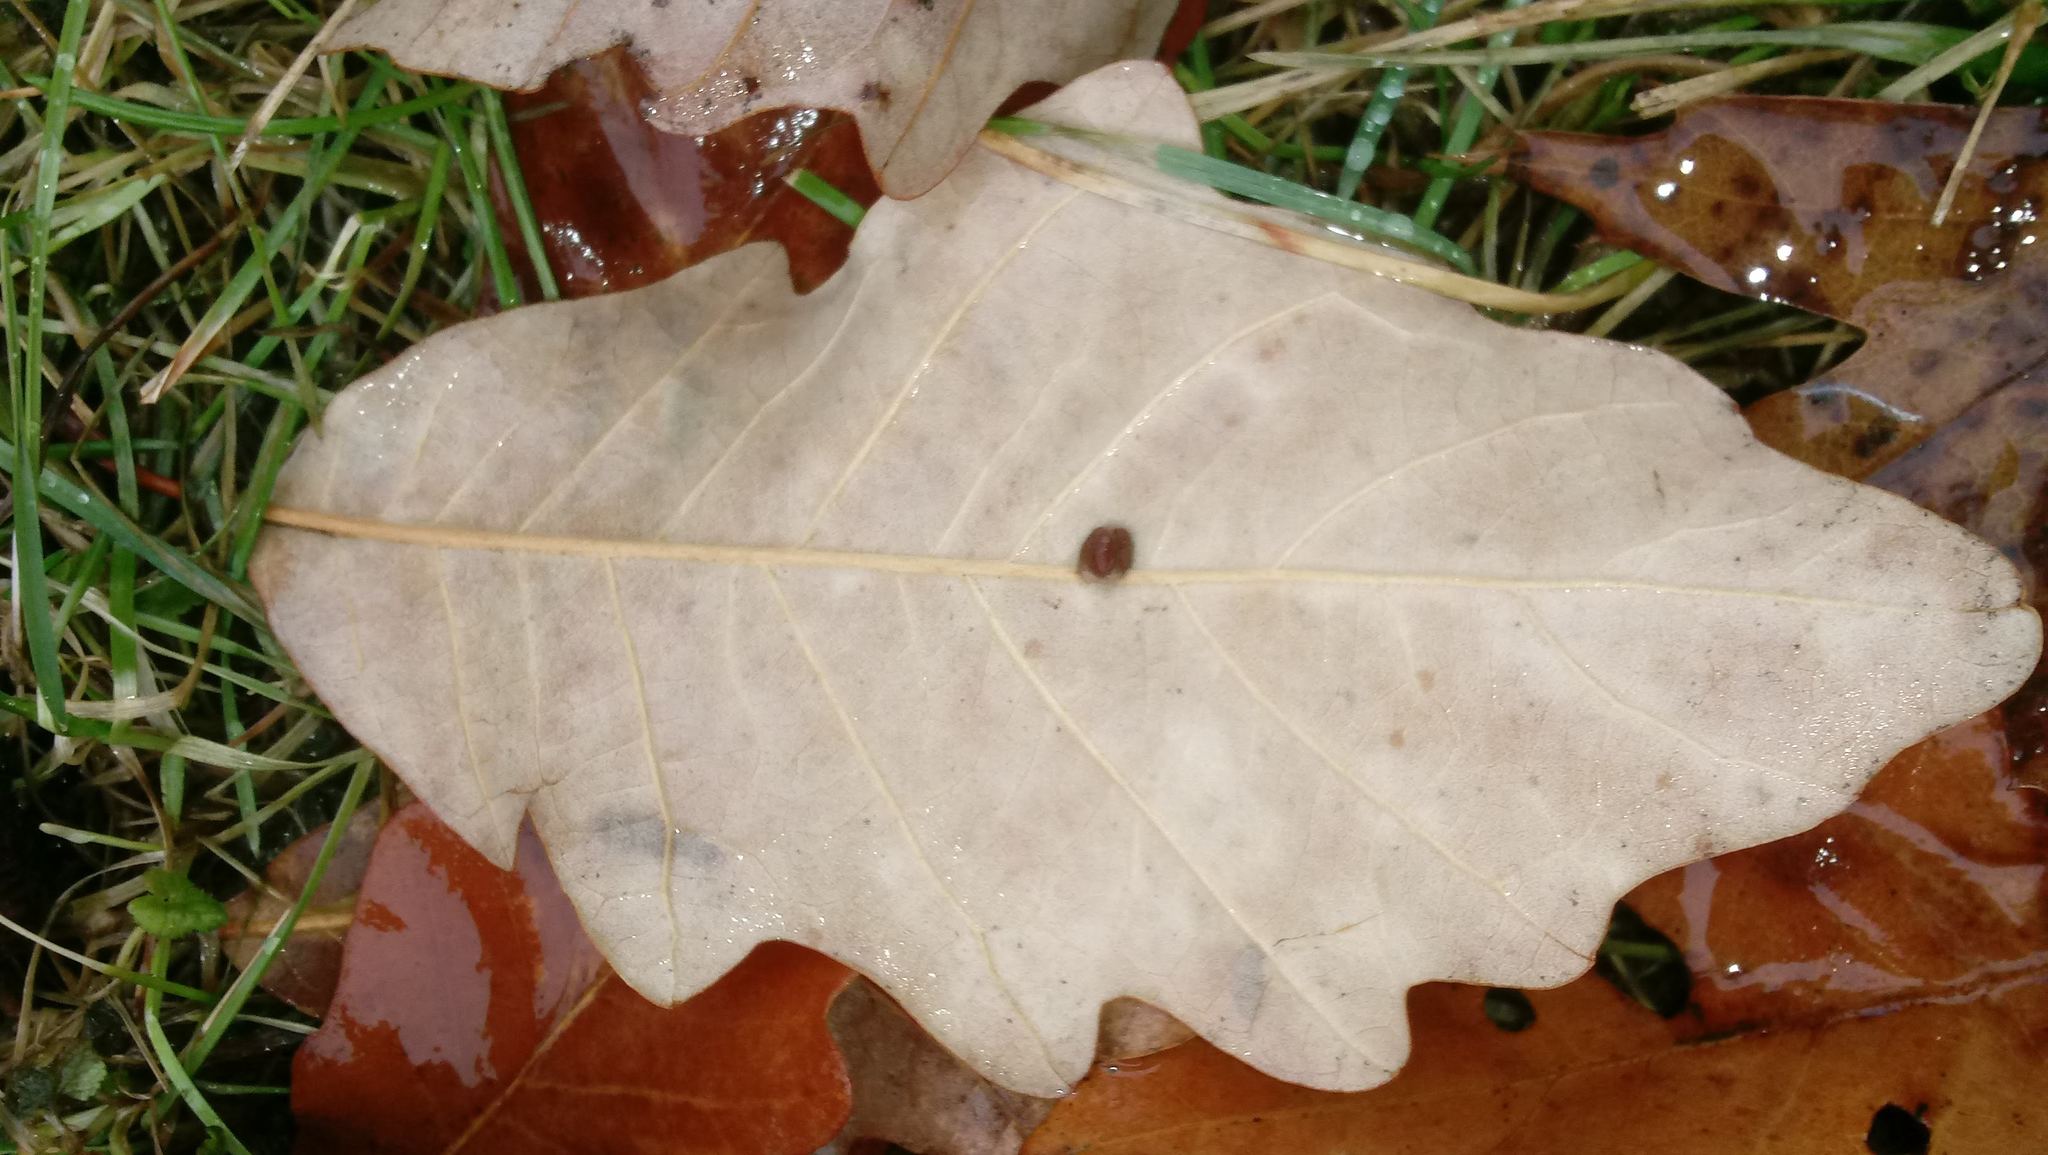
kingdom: Animalia
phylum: Arthropoda
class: Insecta
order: Hymenoptera
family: Cynipidae
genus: Andricus
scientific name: Andricus Druon ignotum
